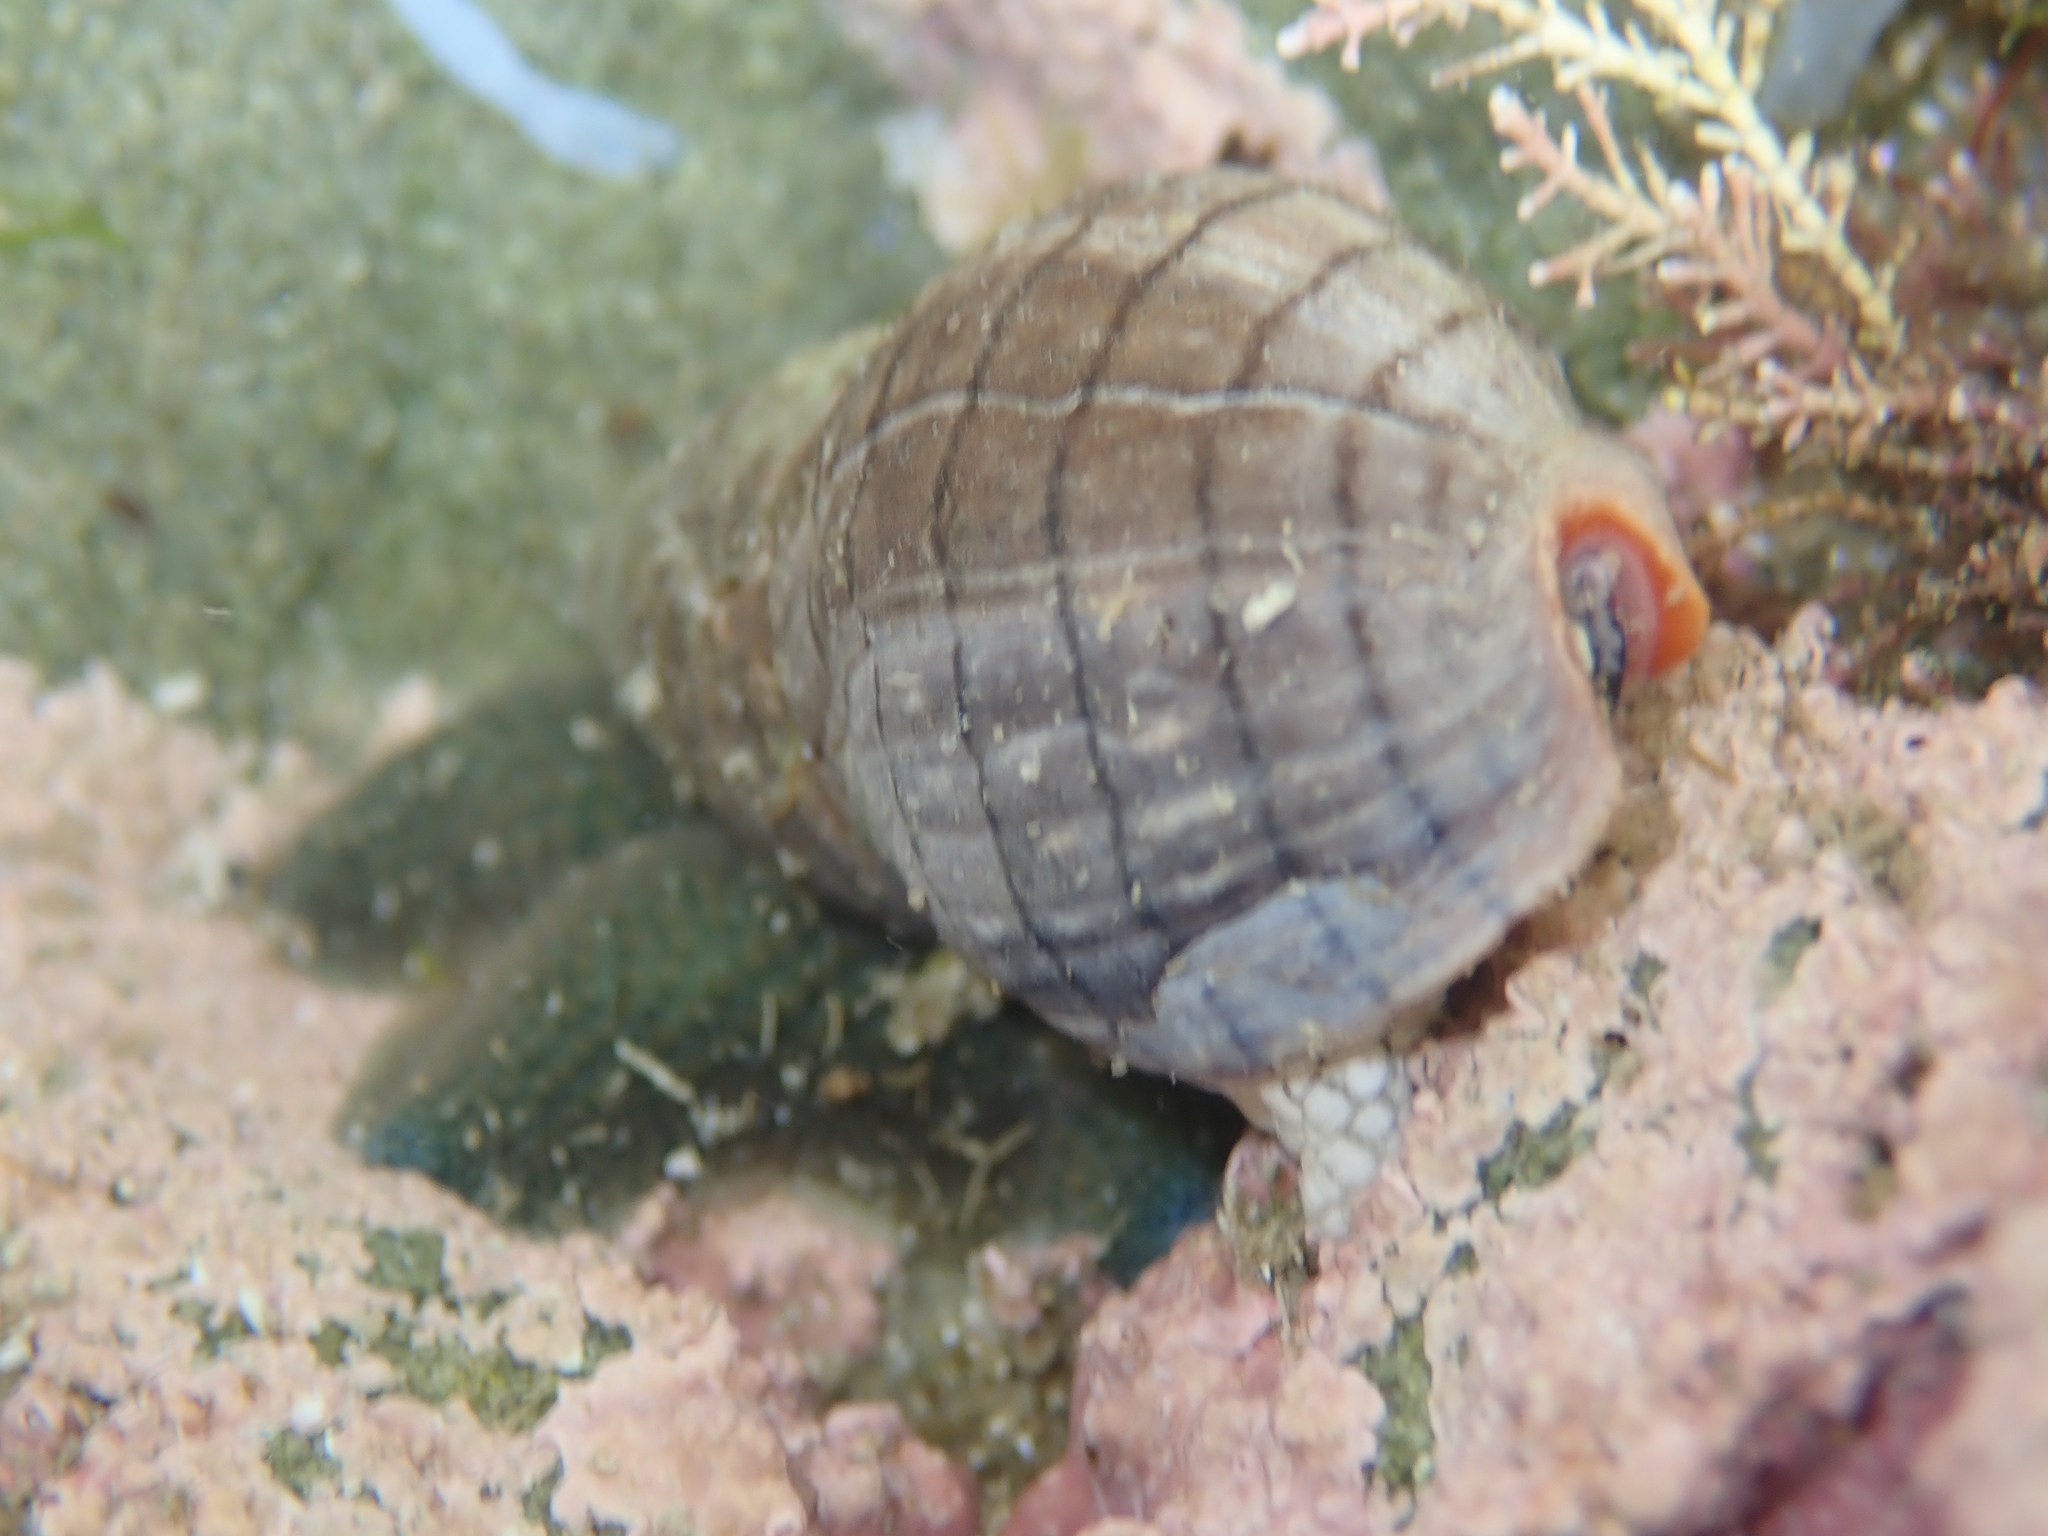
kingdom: Animalia
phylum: Mollusca
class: Gastropoda
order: Neogastropoda
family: Cominellidae
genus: Cominella
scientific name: Cominella virgata
